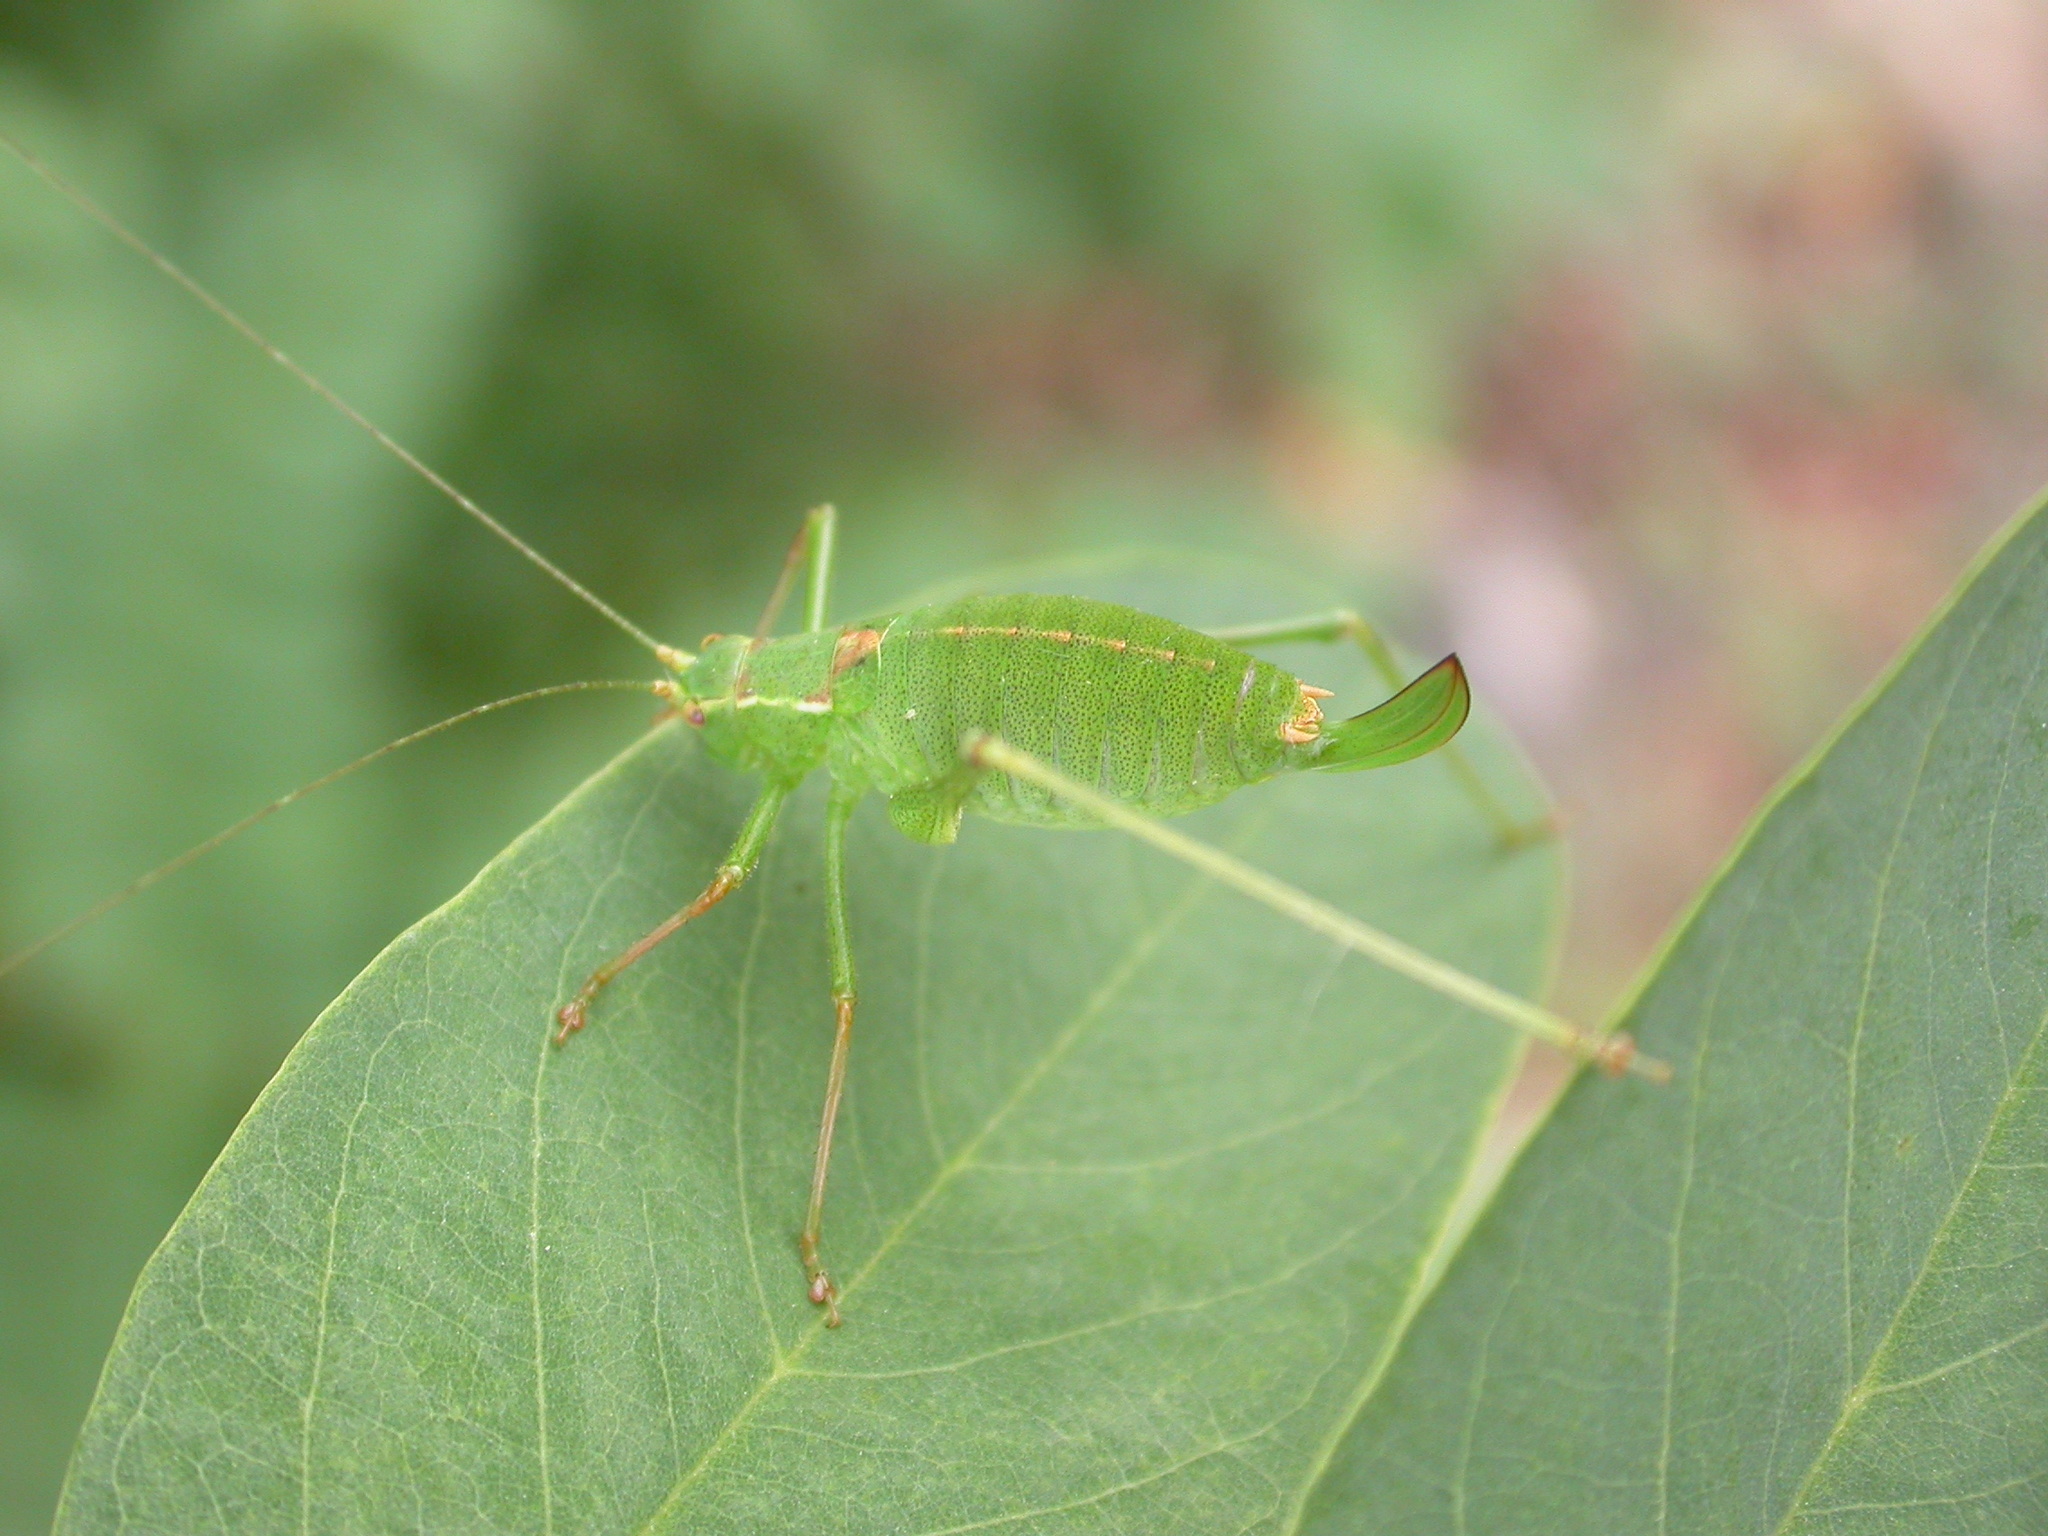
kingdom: Animalia
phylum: Arthropoda
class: Insecta
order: Orthoptera
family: Tettigoniidae
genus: Leptophyes
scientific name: Leptophyes punctatissima
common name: Speckled bush-cricket
